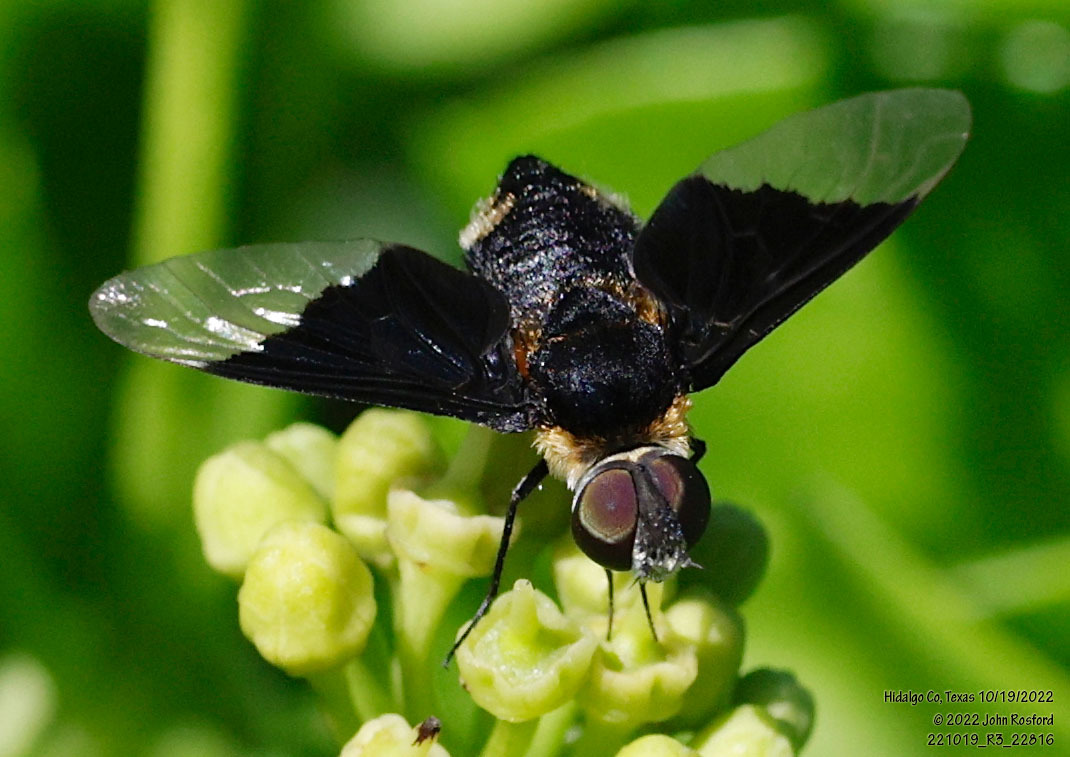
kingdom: Animalia
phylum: Arthropoda
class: Insecta
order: Diptera
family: Bombyliidae
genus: Ins
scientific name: Ins celeris
